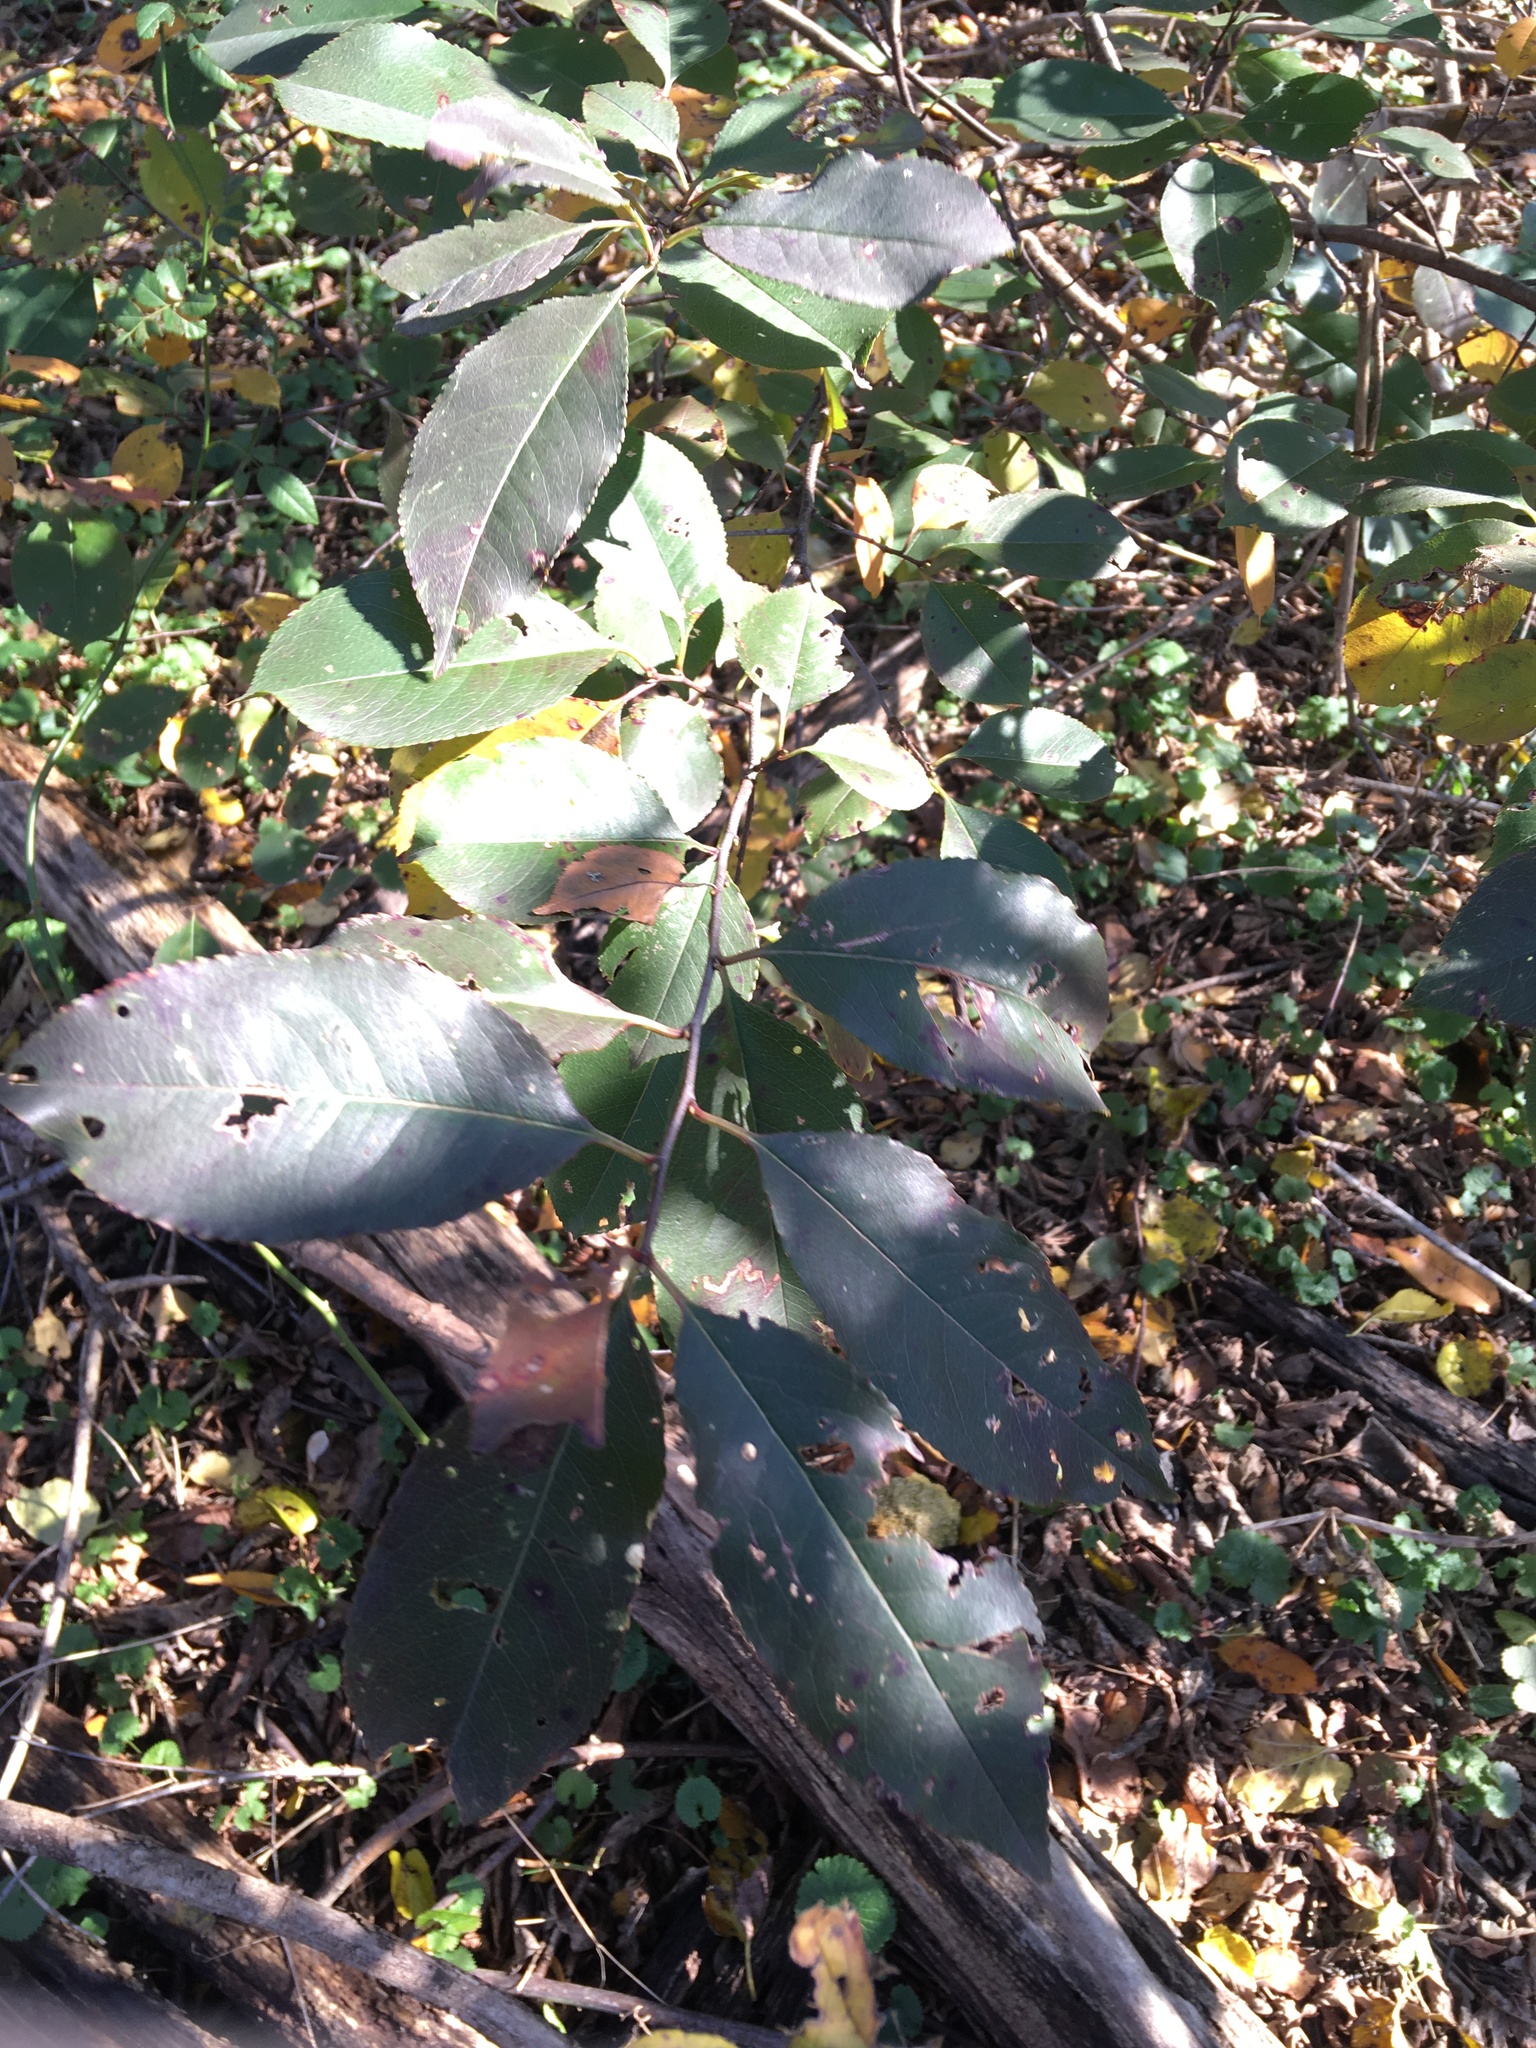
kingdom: Plantae
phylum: Tracheophyta
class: Magnoliopsida
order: Rosales
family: Rosaceae
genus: Prunus
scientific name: Prunus serotina
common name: Black cherry
